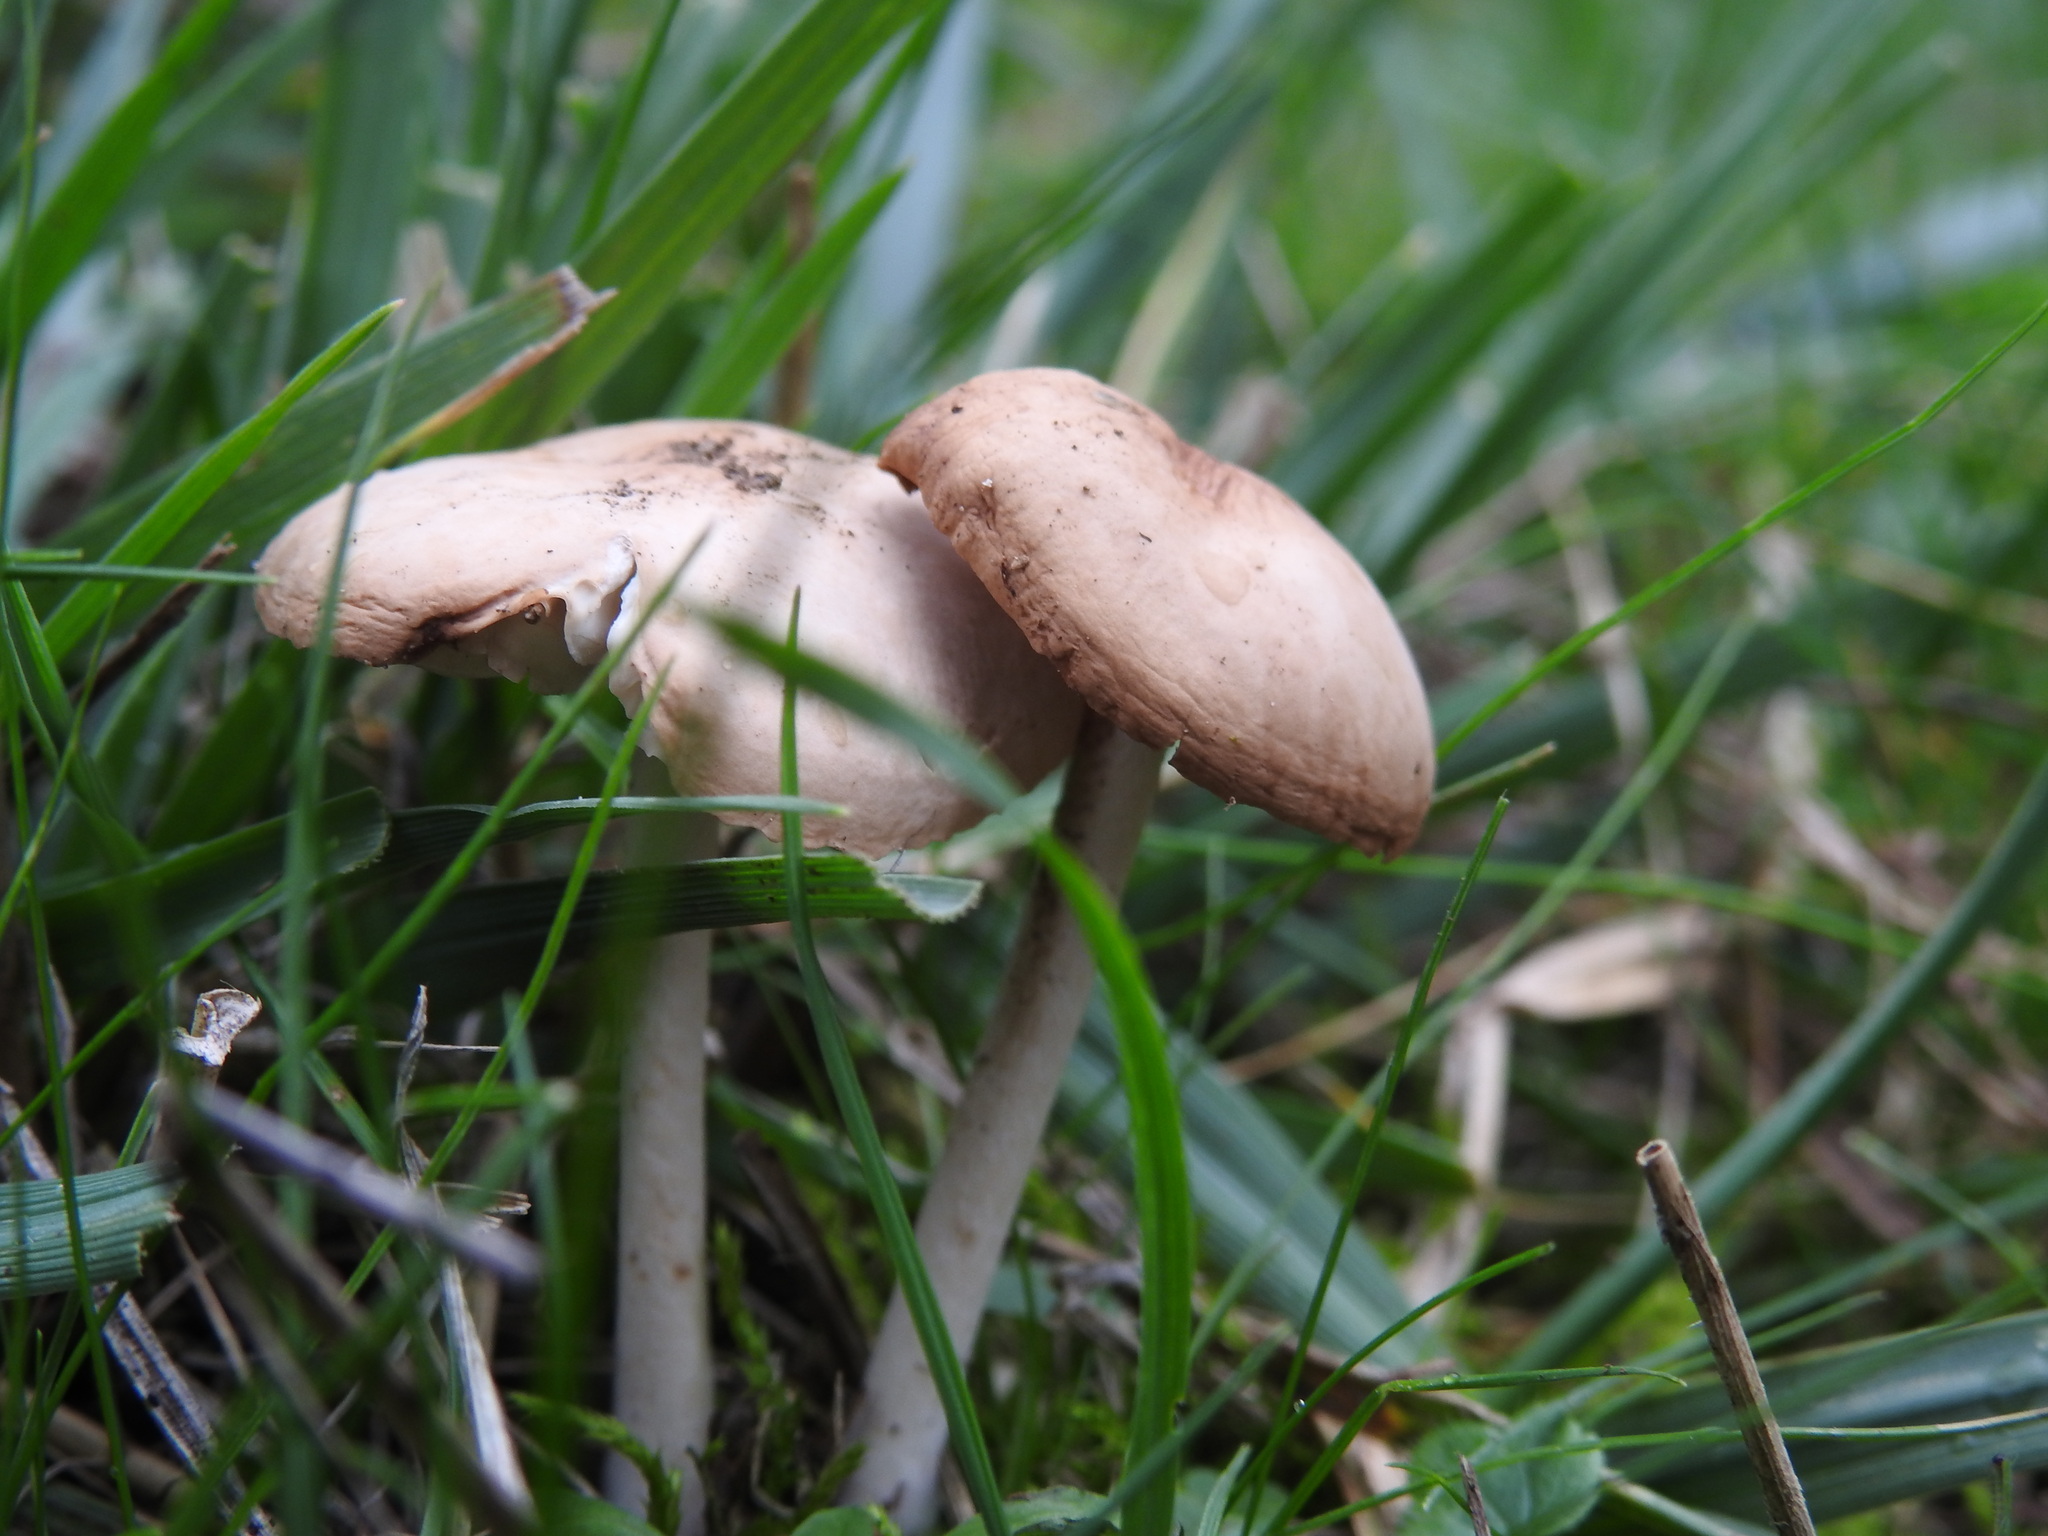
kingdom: Fungi
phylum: Basidiomycota
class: Agaricomycetes
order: Agaricales
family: Marasmiaceae
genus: Marasmius
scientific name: Marasmius oreades
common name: Fairy ring champignon
